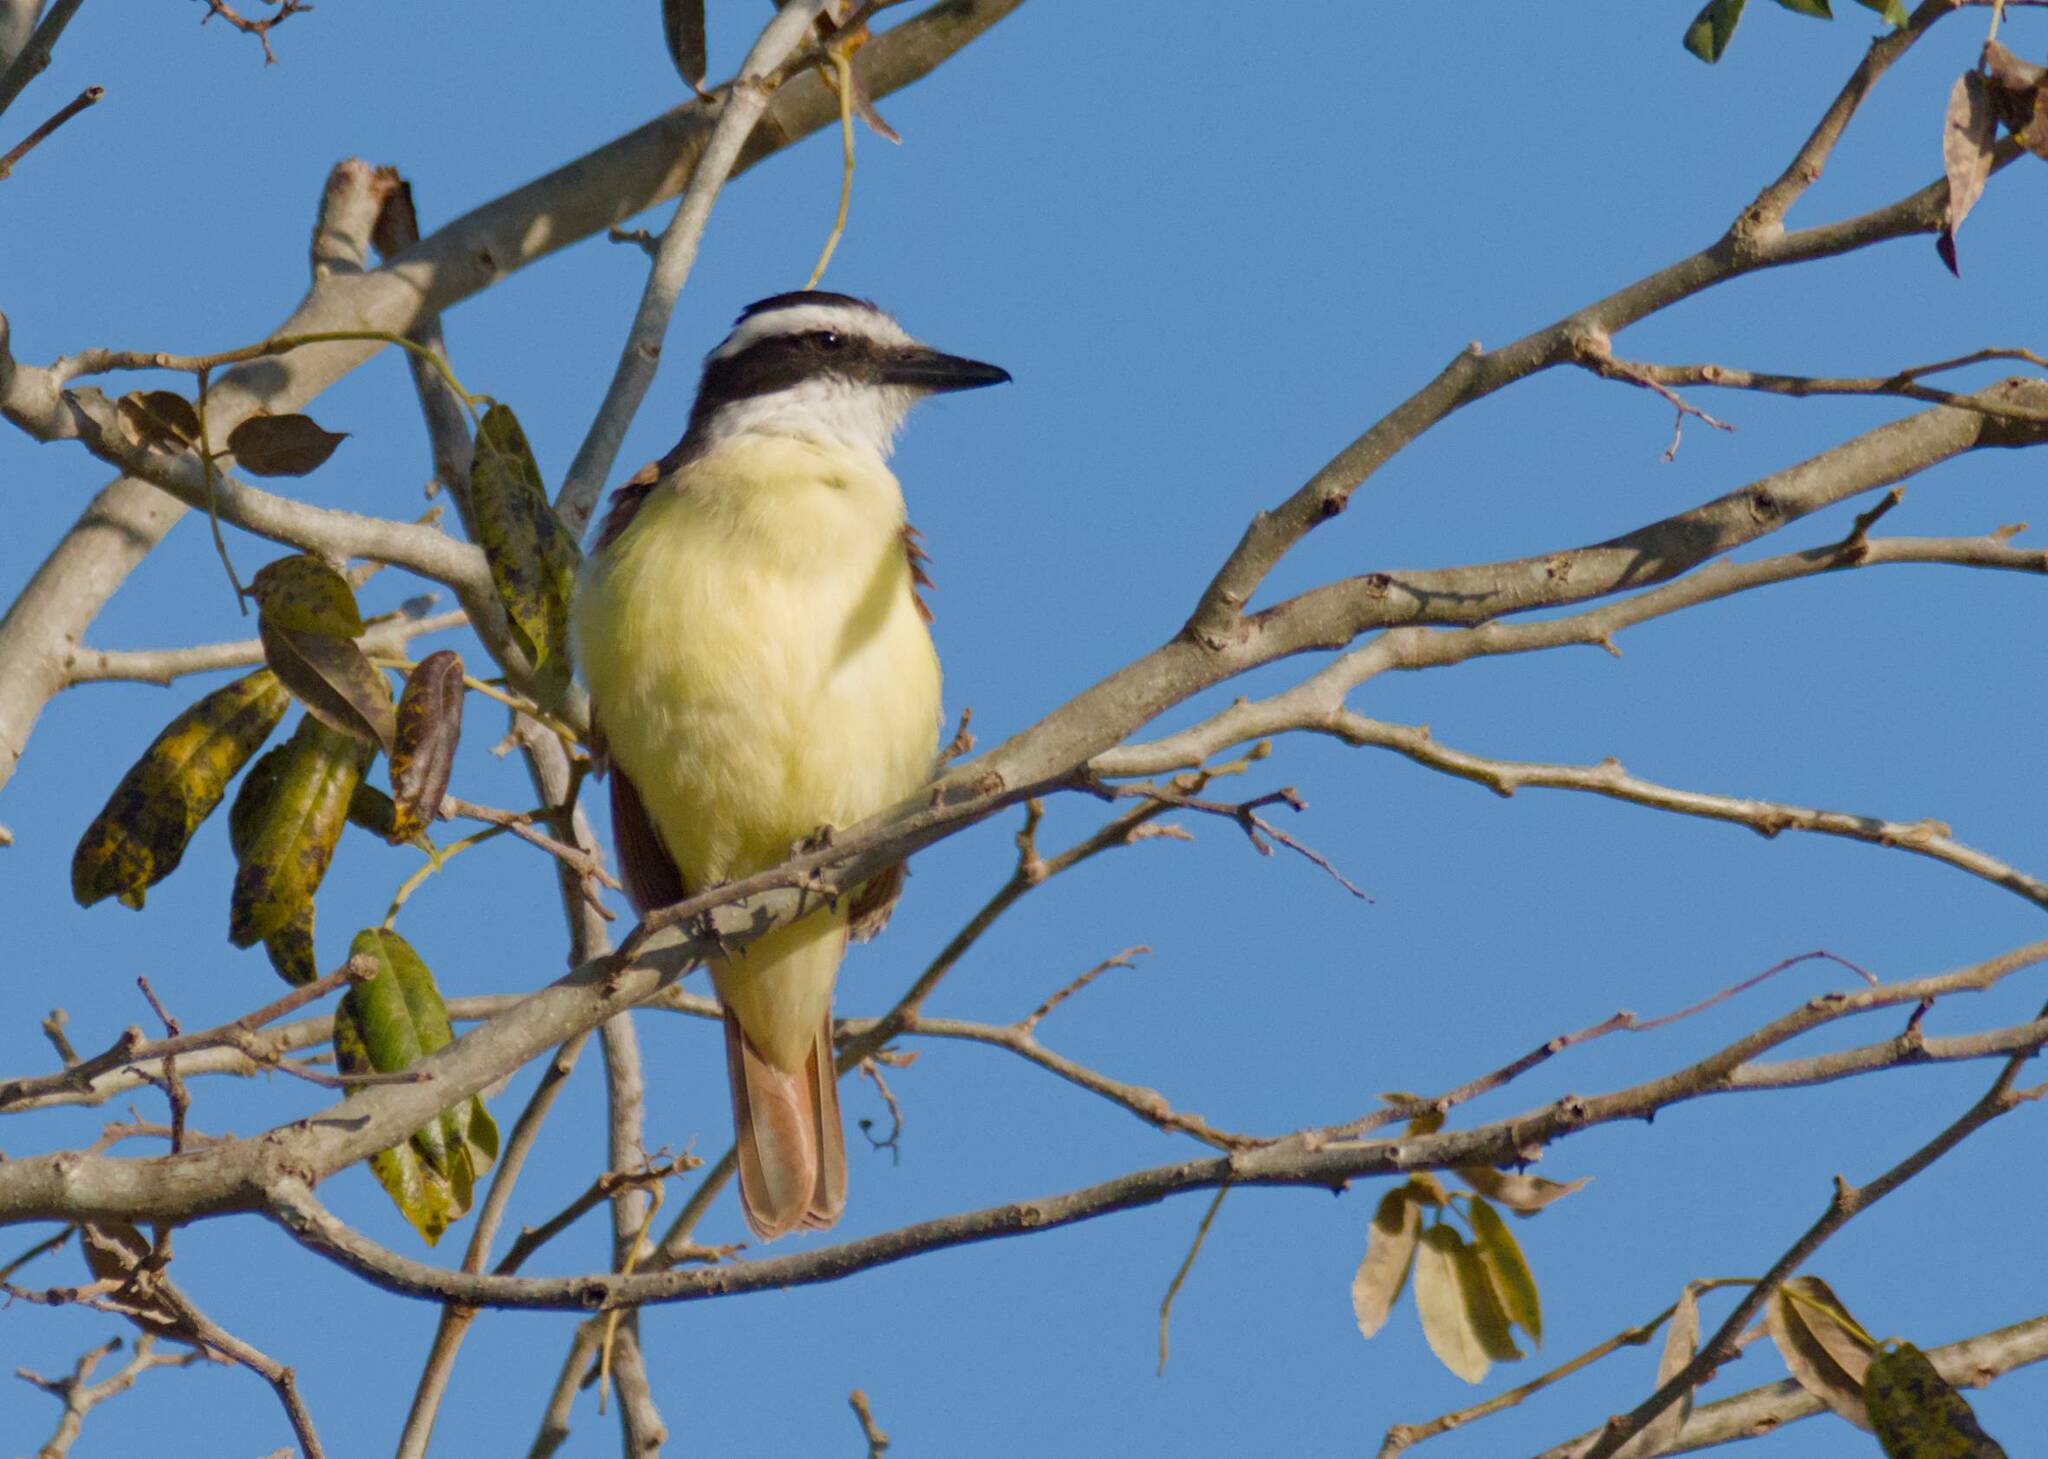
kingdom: Animalia
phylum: Chordata
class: Aves
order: Passeriformes
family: Tyrannidae
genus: Pitangus
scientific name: Pitangus sulphuratus
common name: Great kiskadee
